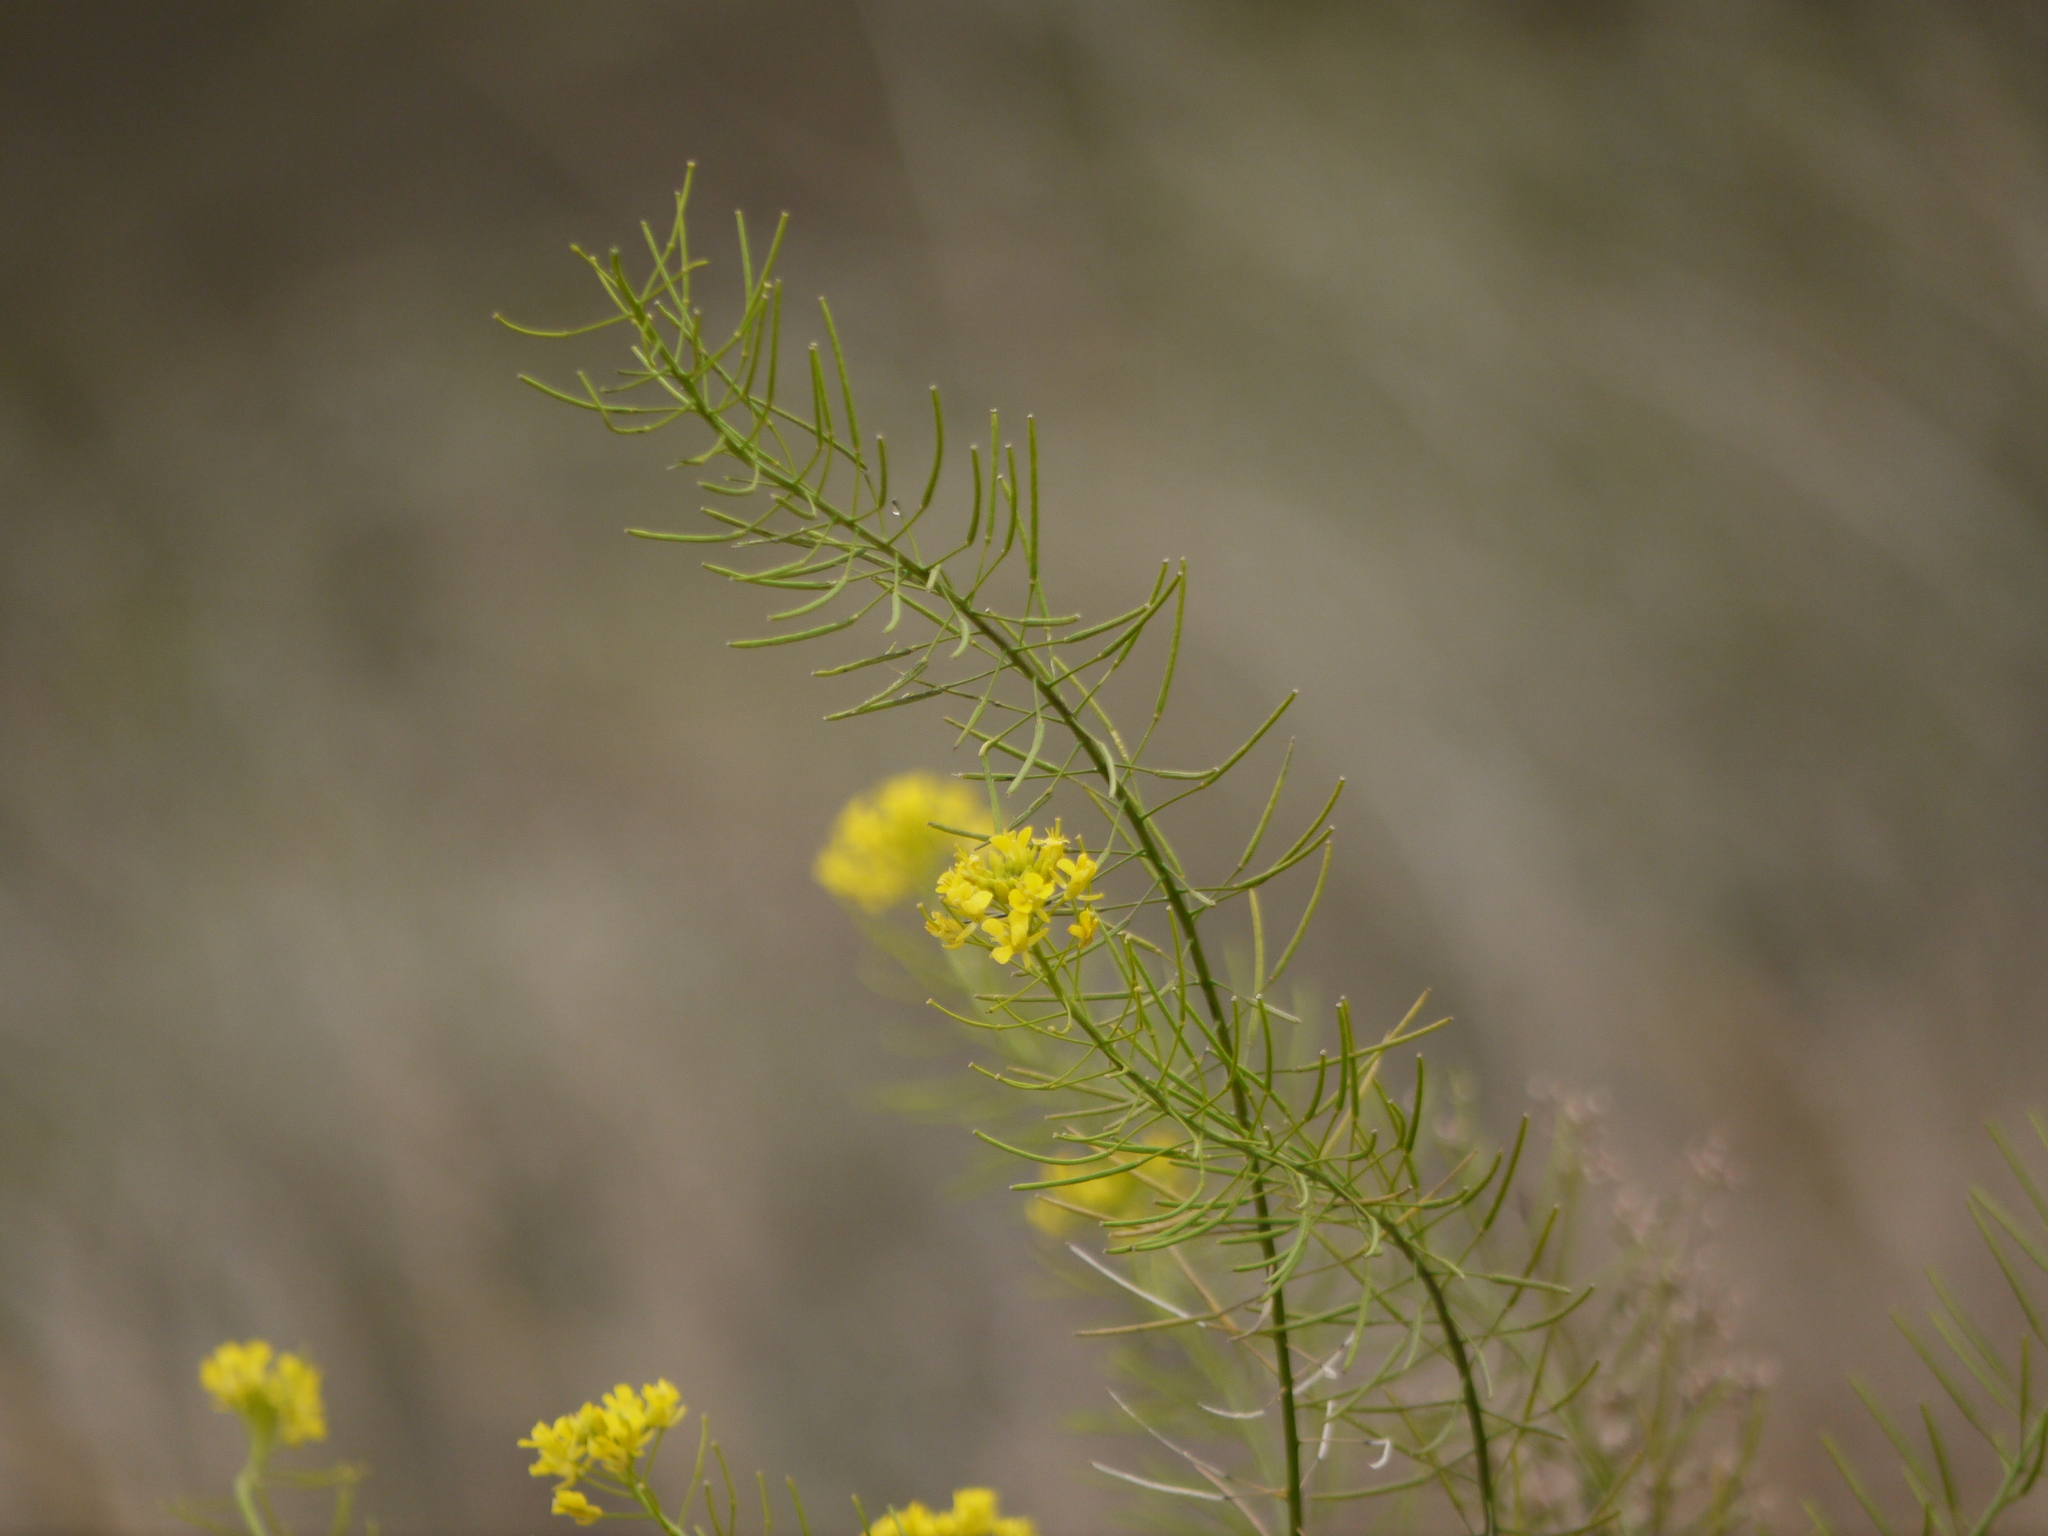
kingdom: Plantae
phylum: Tracheophyta
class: Magnoliopsida
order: Brassicales
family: Brassicaceae
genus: Brassica
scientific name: Brassica rapa
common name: Field mustard
